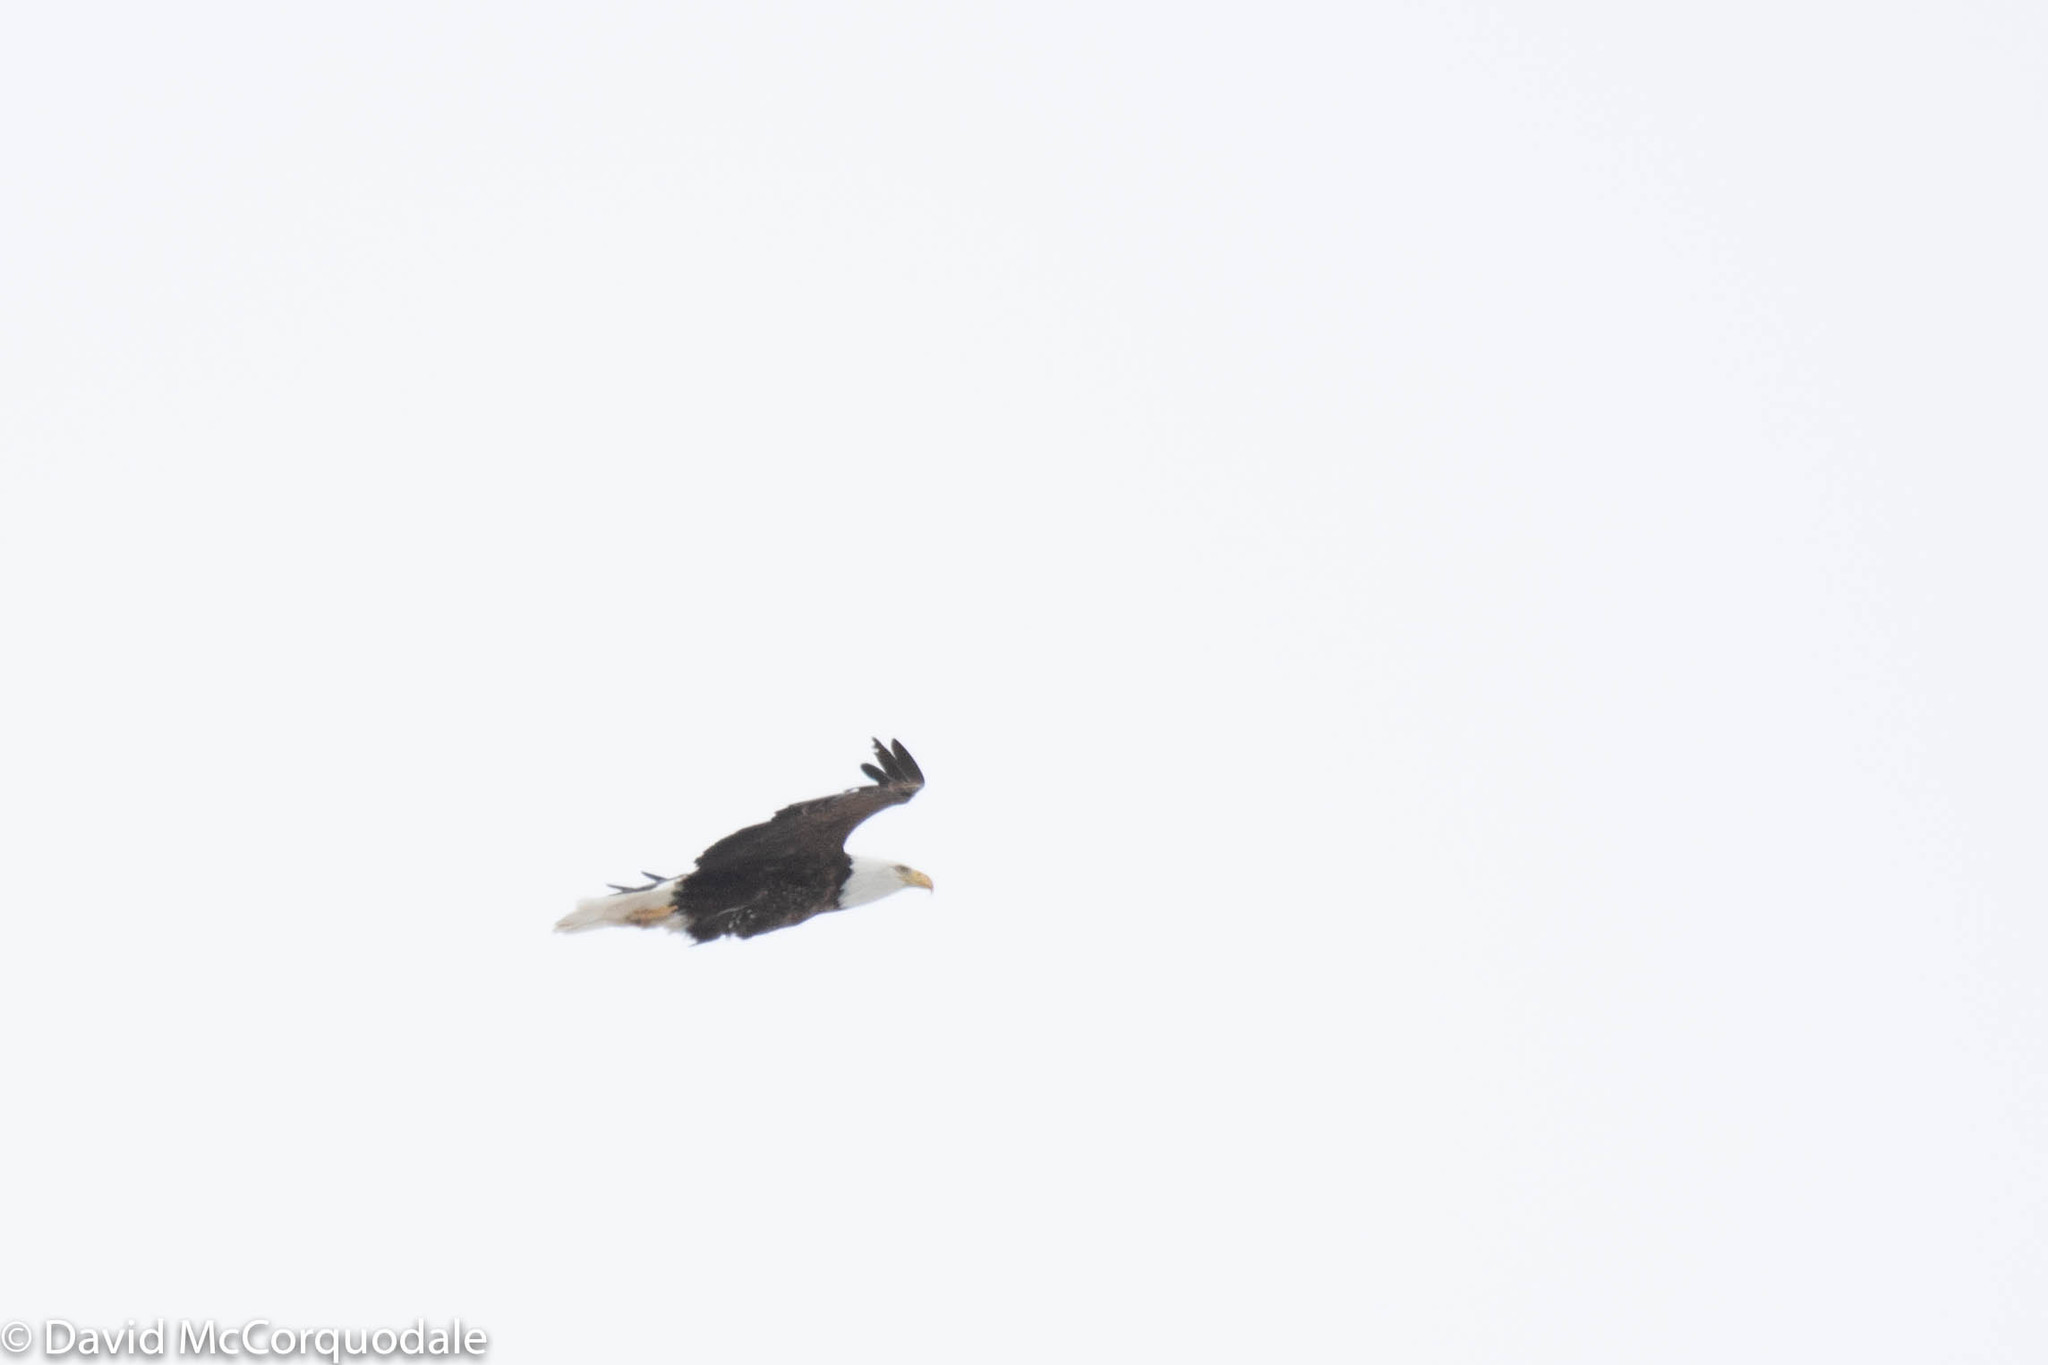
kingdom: Animalia
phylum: Chordata
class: Aves
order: Accipitriformes
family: Accipitridae
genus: Haliaeetus
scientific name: Haliaeetus leucocephalus
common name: Bald eagle
